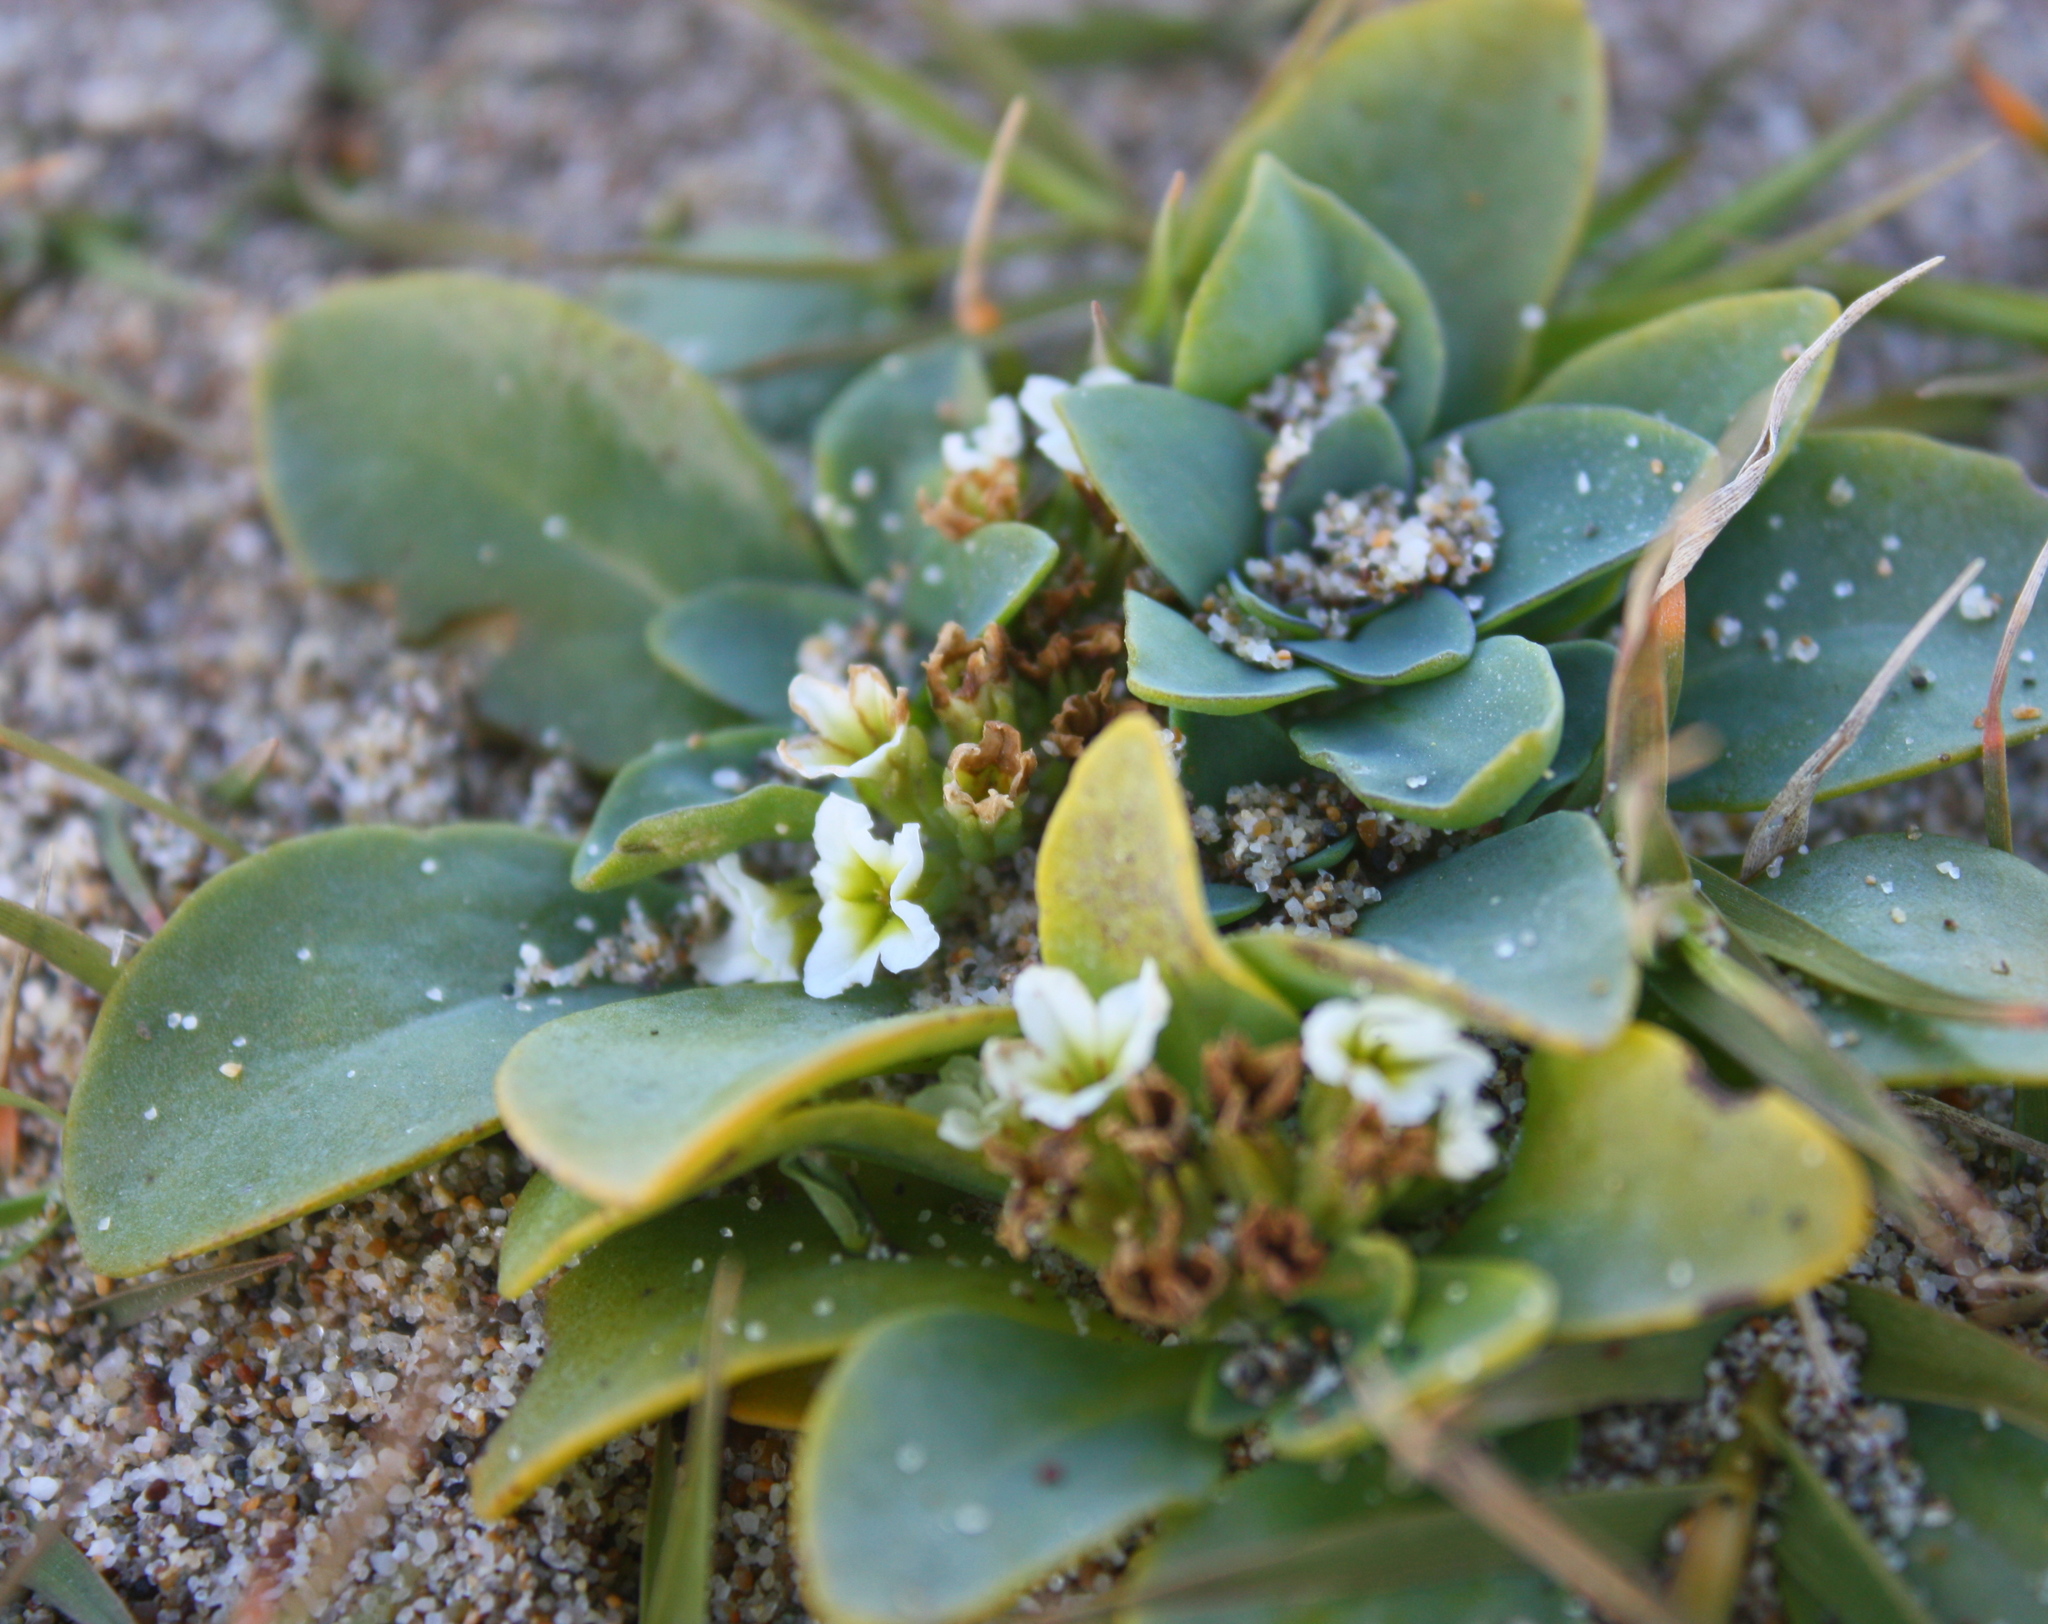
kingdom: Plantae
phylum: Tracheophyta
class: Magnoliopsida
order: Boraginales
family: Heliotropiaceae
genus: Heliotropium
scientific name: Heliotropium curassavicum
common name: Seaside heliotrope
